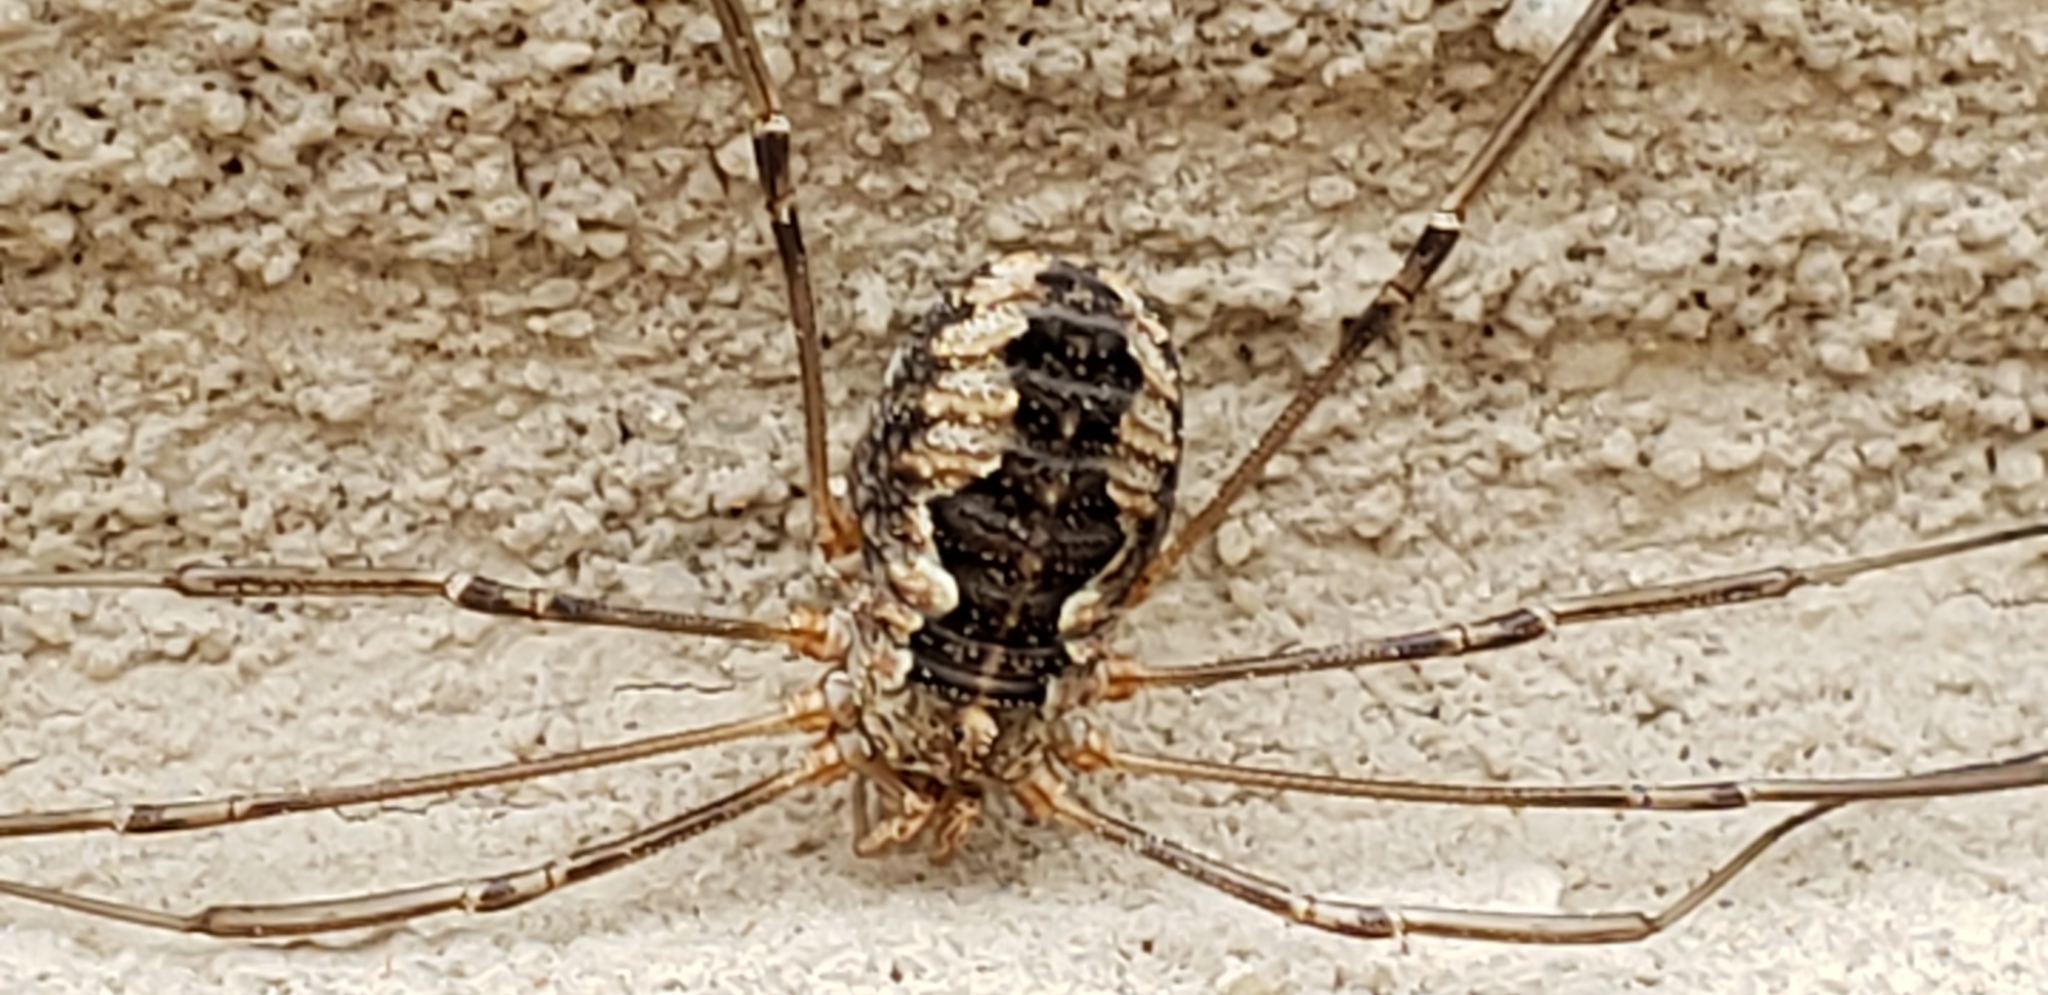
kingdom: Animalia
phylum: Arthropoda
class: Arachnida
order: Opiliones
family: Phalangiidae
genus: Phalangium
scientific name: Phalangium opilio
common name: Daddy longleg
